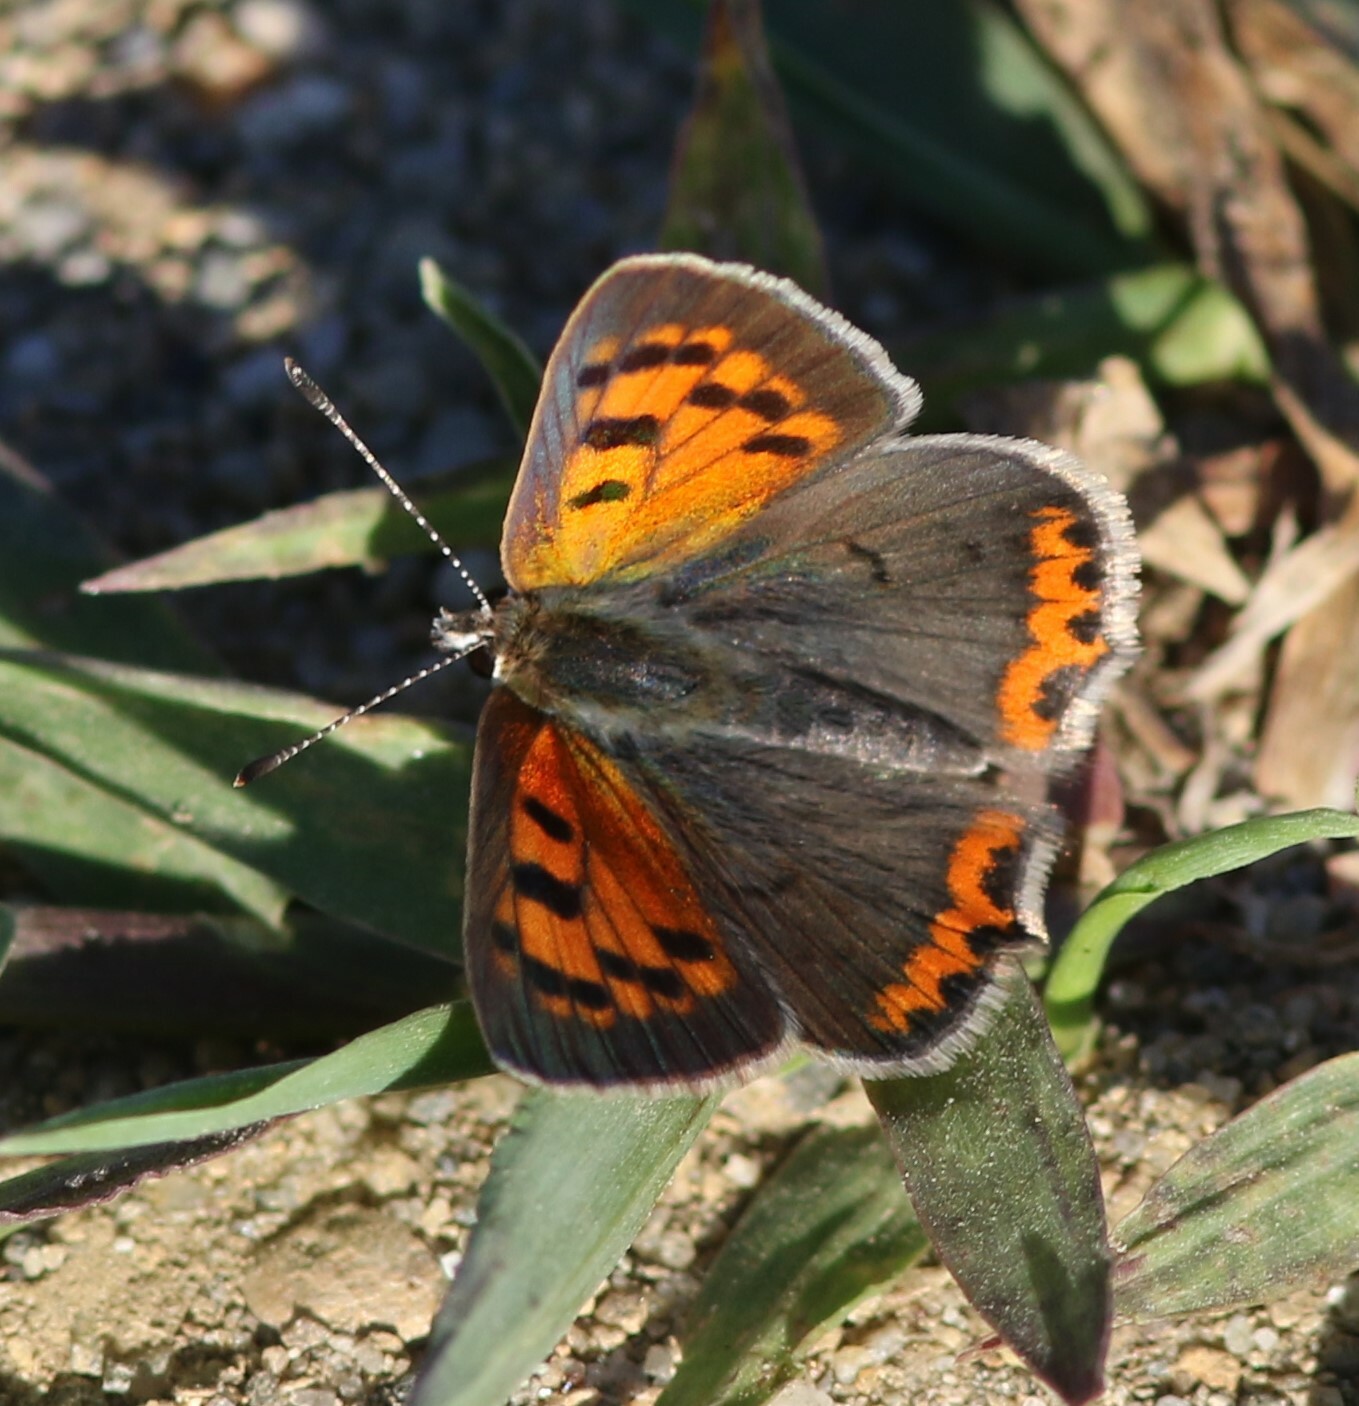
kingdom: Animalia
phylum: Arthropoda
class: Insecta
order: Lepidoptera
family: Lycaenidae
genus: Lycaena
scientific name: Lycaena hypophlaeas
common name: American copper
